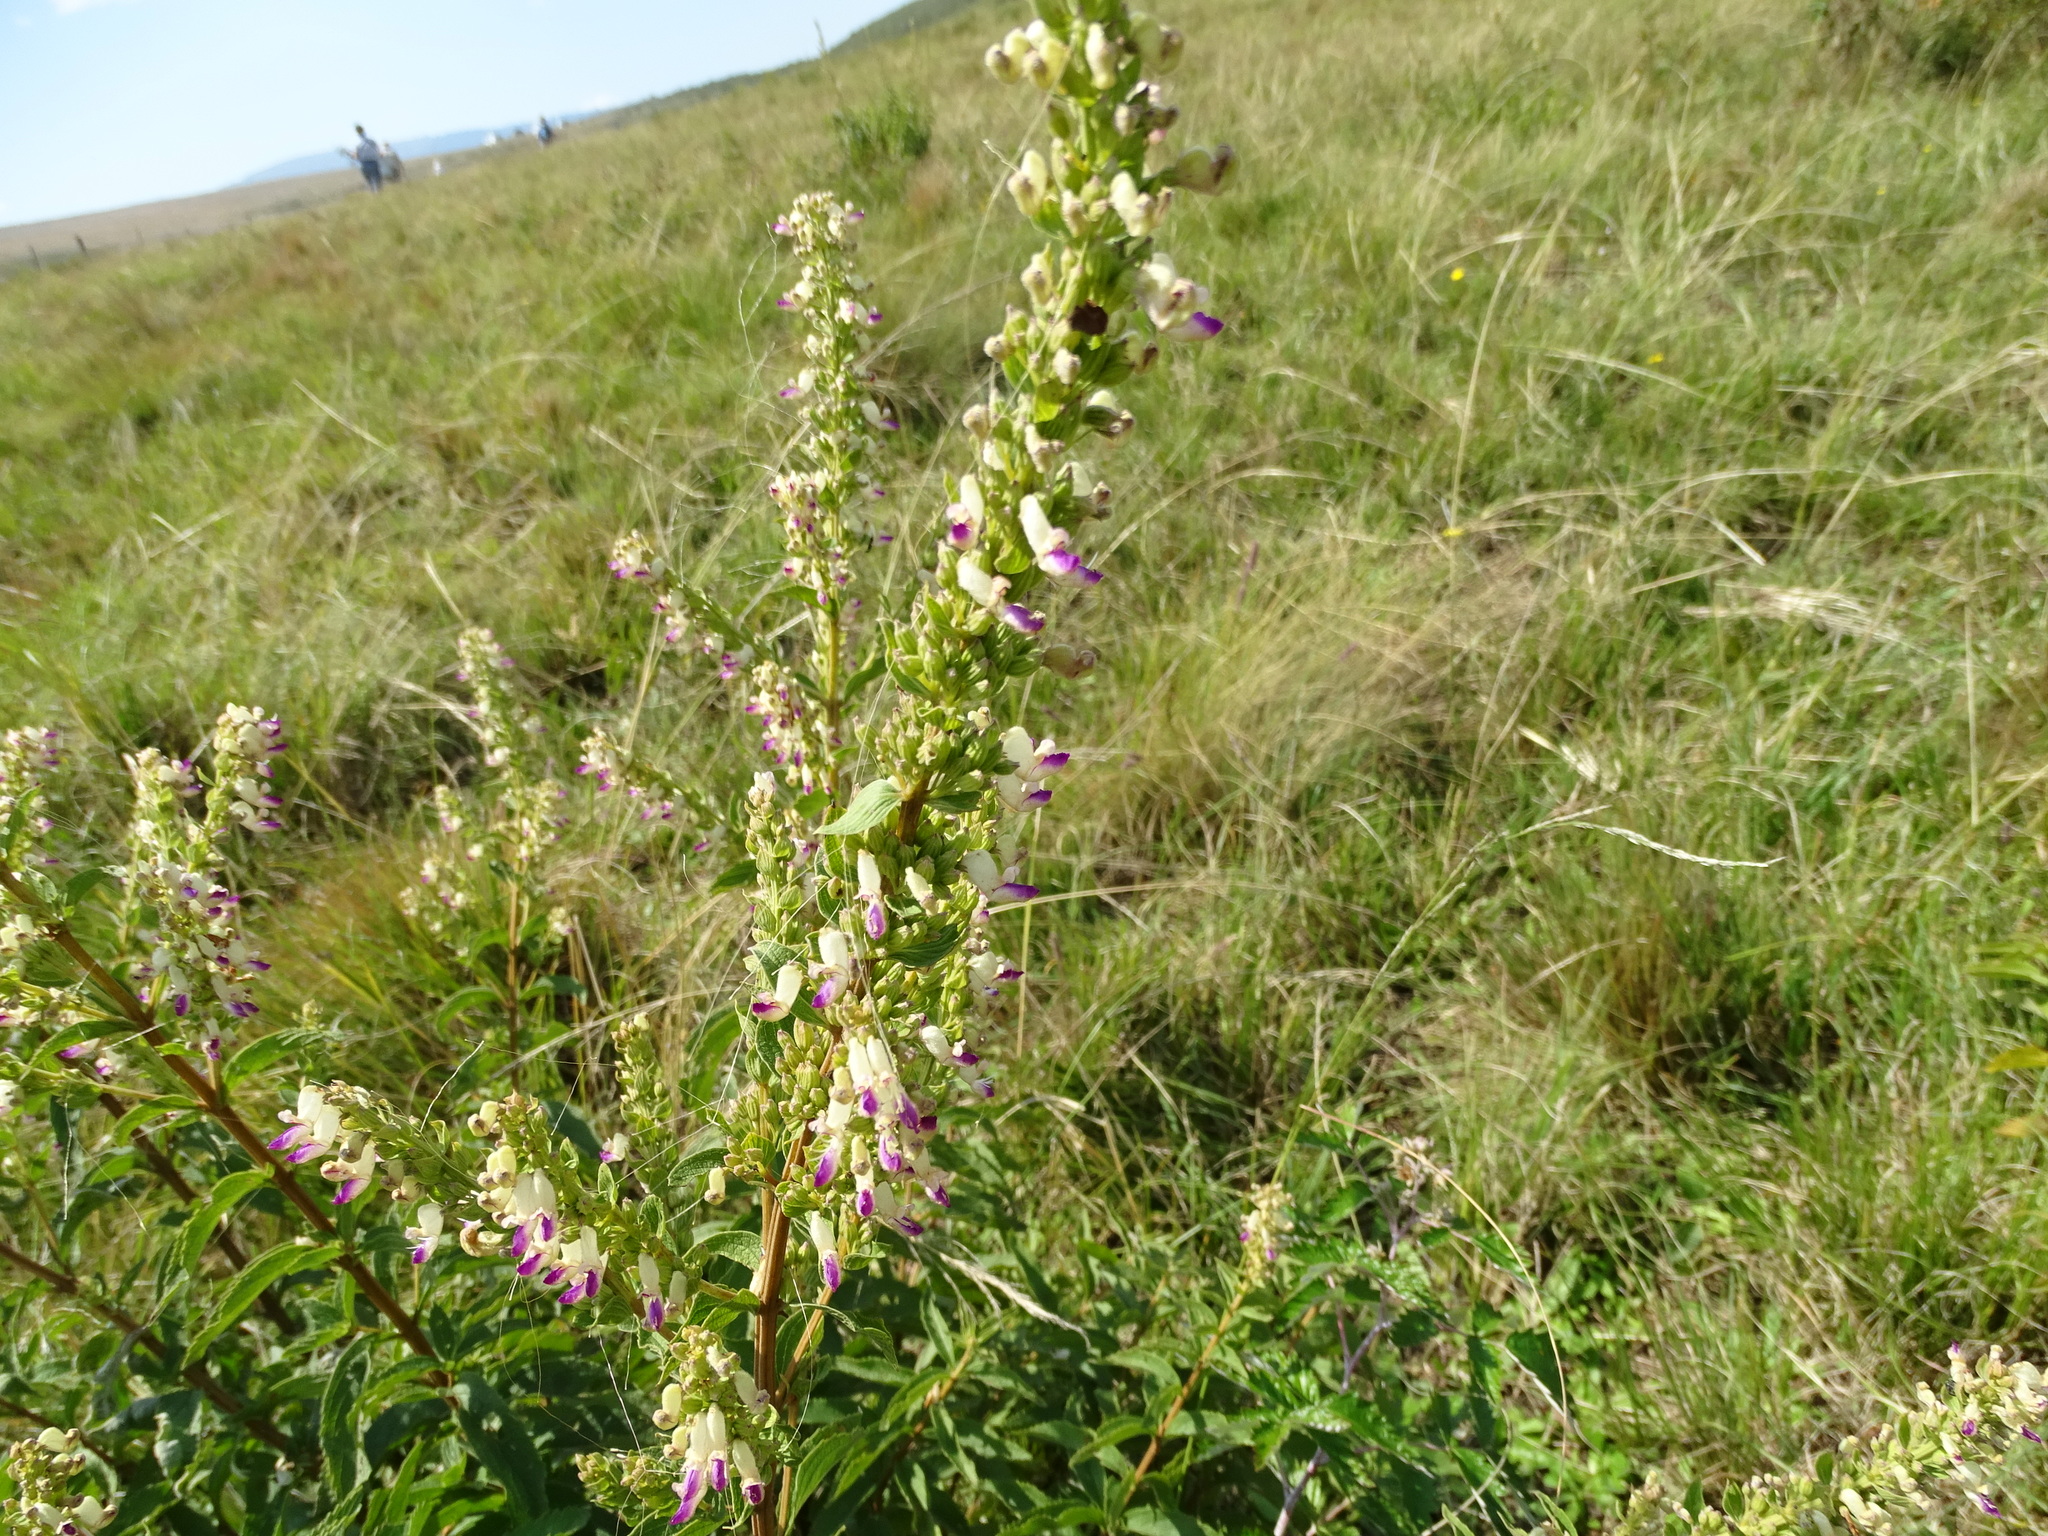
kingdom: Plantae
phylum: Tracheophyta
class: Magnoliopsida
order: Lamiales
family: Lamiaceae
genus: Coleus
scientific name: Coleus calycinus
